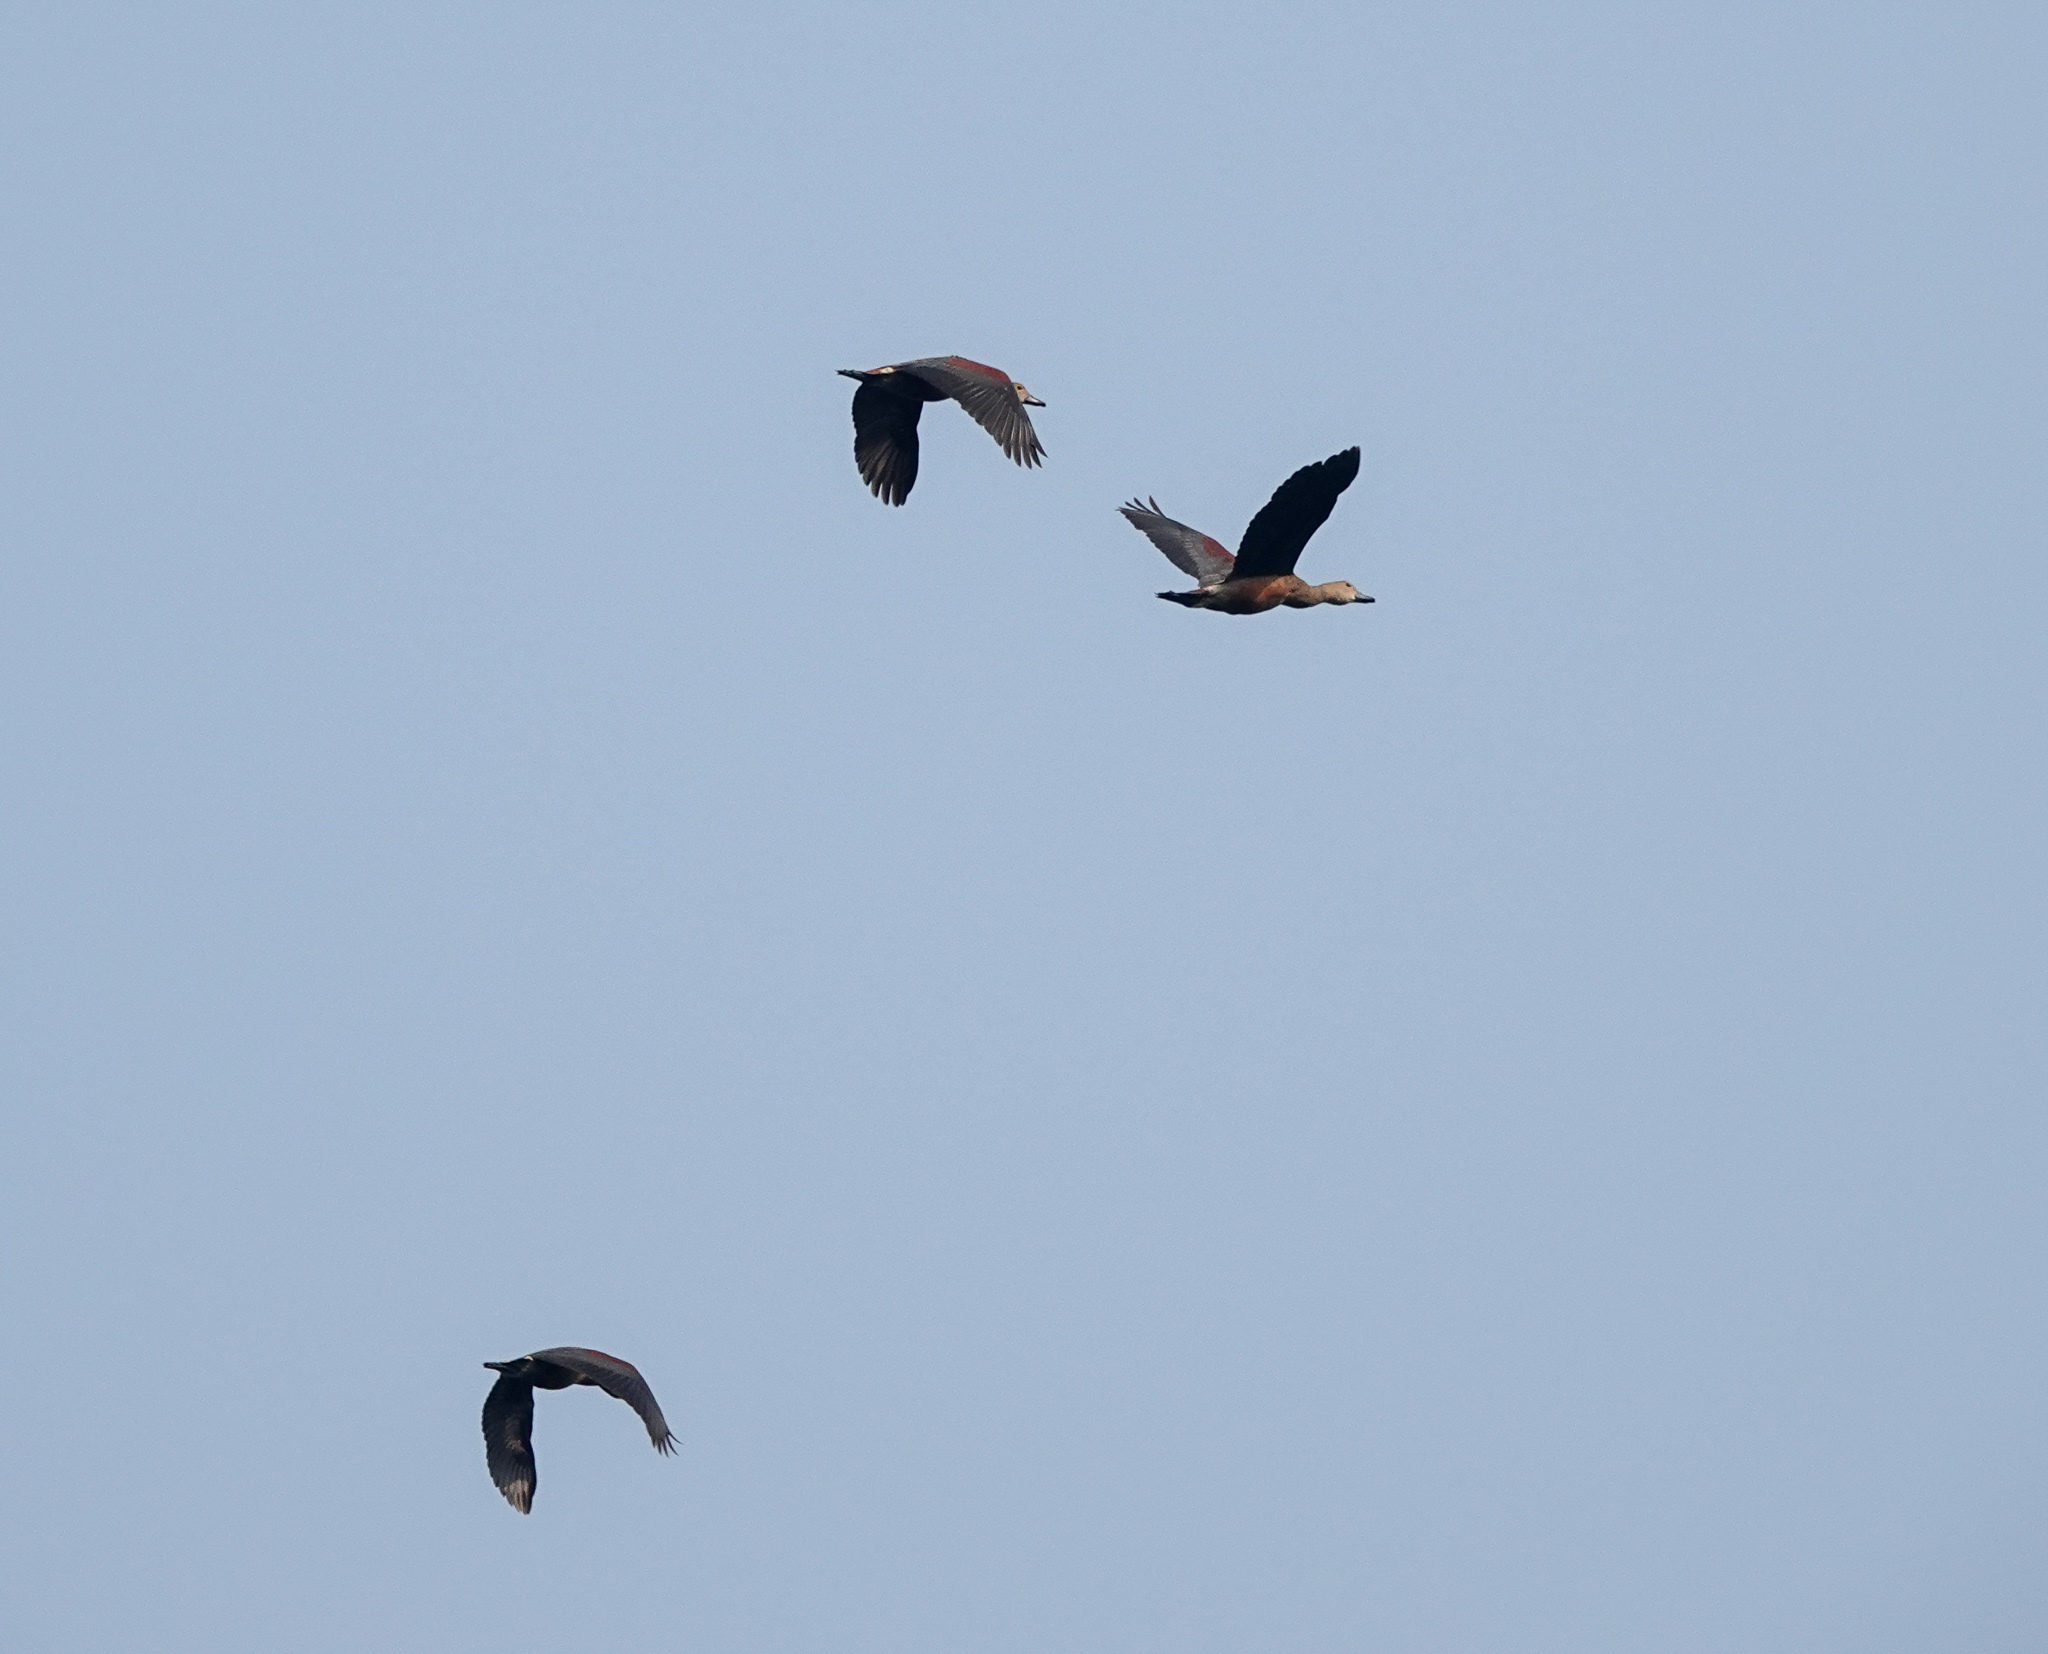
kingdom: Animalia
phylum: Chordata
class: Aves
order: Anseriformes
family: Anatidae
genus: Dendrocygna
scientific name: Dendrocygna javanica
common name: Lesser whistling-duck
